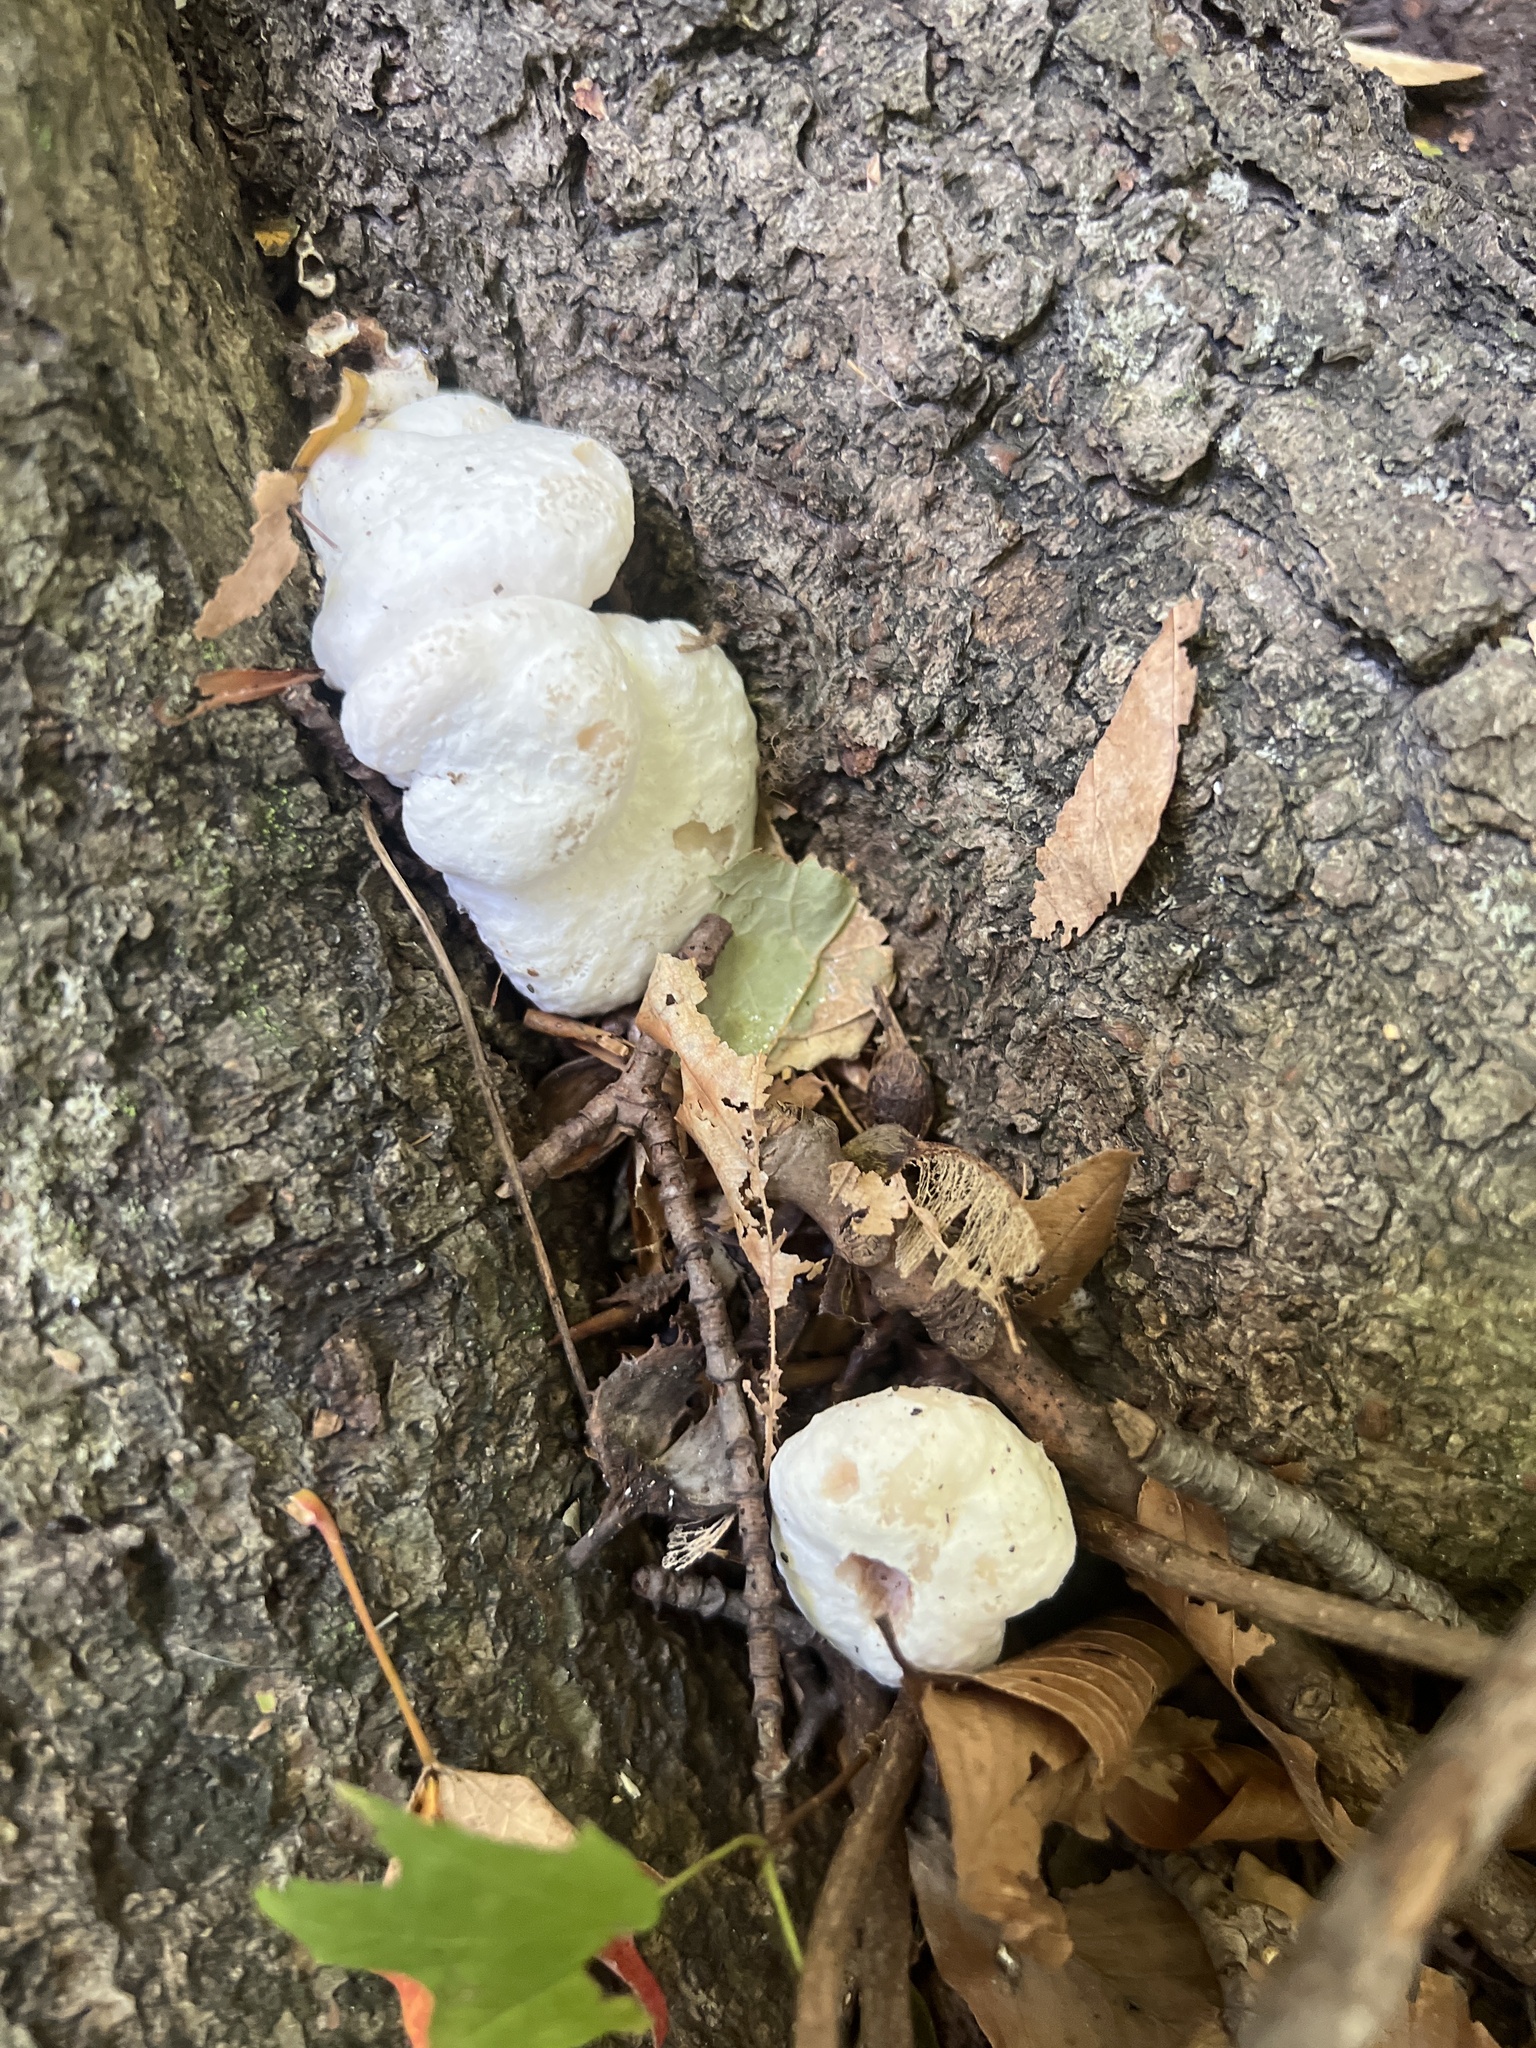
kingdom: Fungi
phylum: Basidiomycota
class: Agaricomycetes
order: Agaricales
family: Entolomataceae
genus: Entoloma
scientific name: Entoloma abortivum
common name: Aborted entoloma
